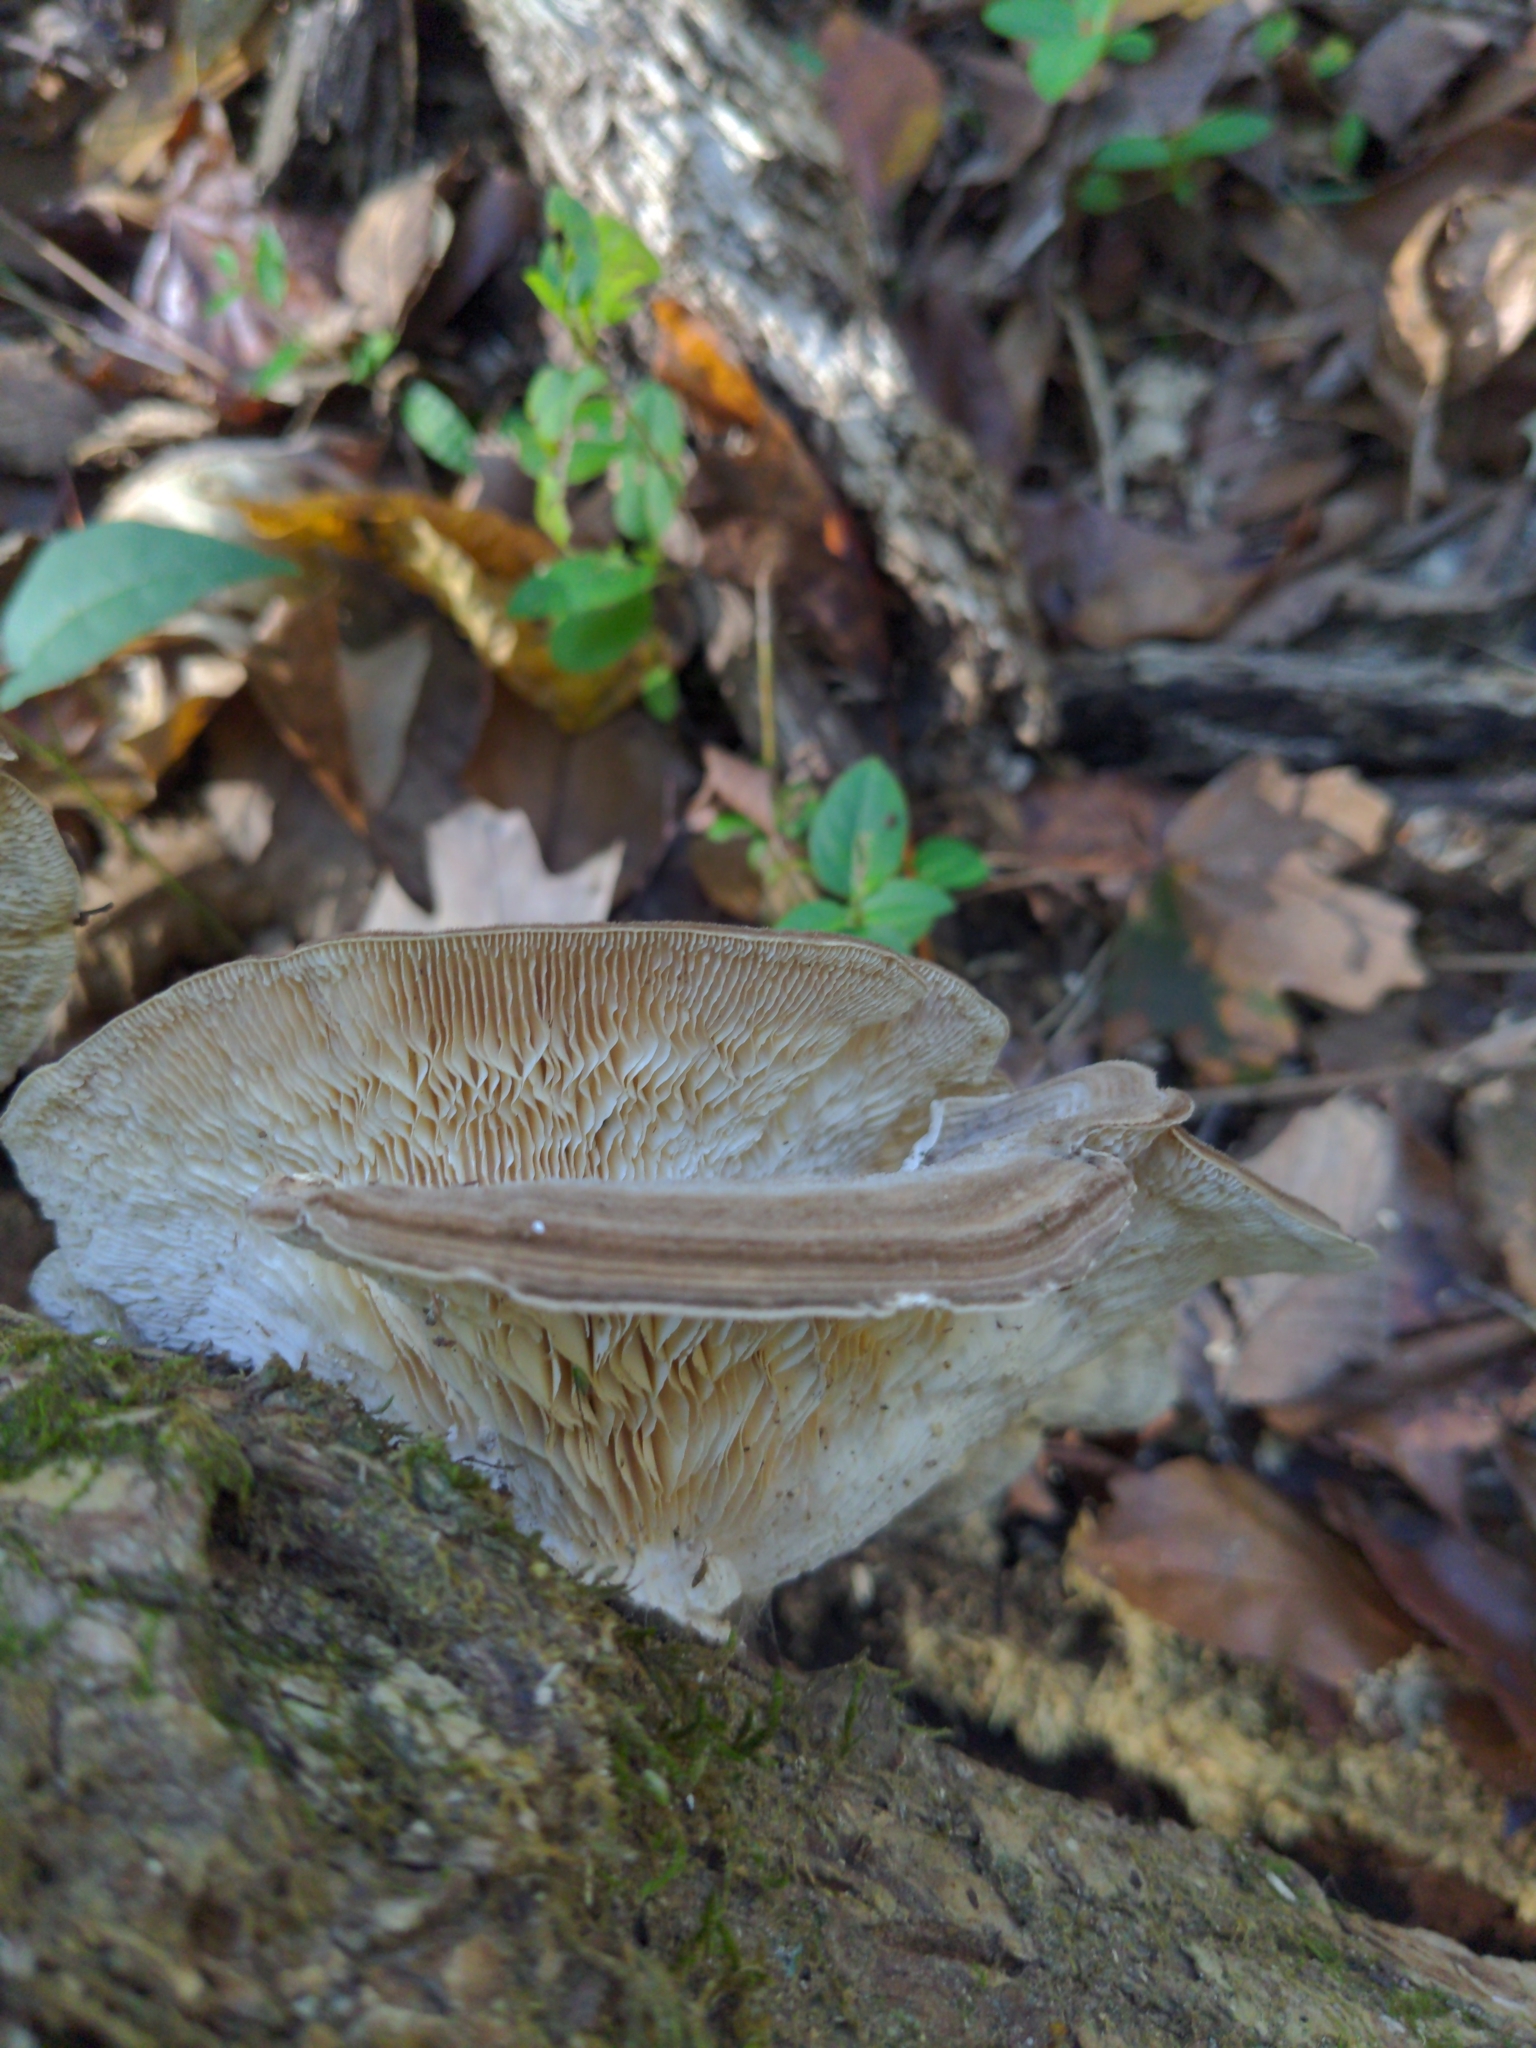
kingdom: Fungi
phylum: Basidiomycota
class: Agaricomycetes
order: Polyporales
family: Polyporaceae
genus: Lenzites
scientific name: Lenzites betulinus
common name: Birch mazegill
